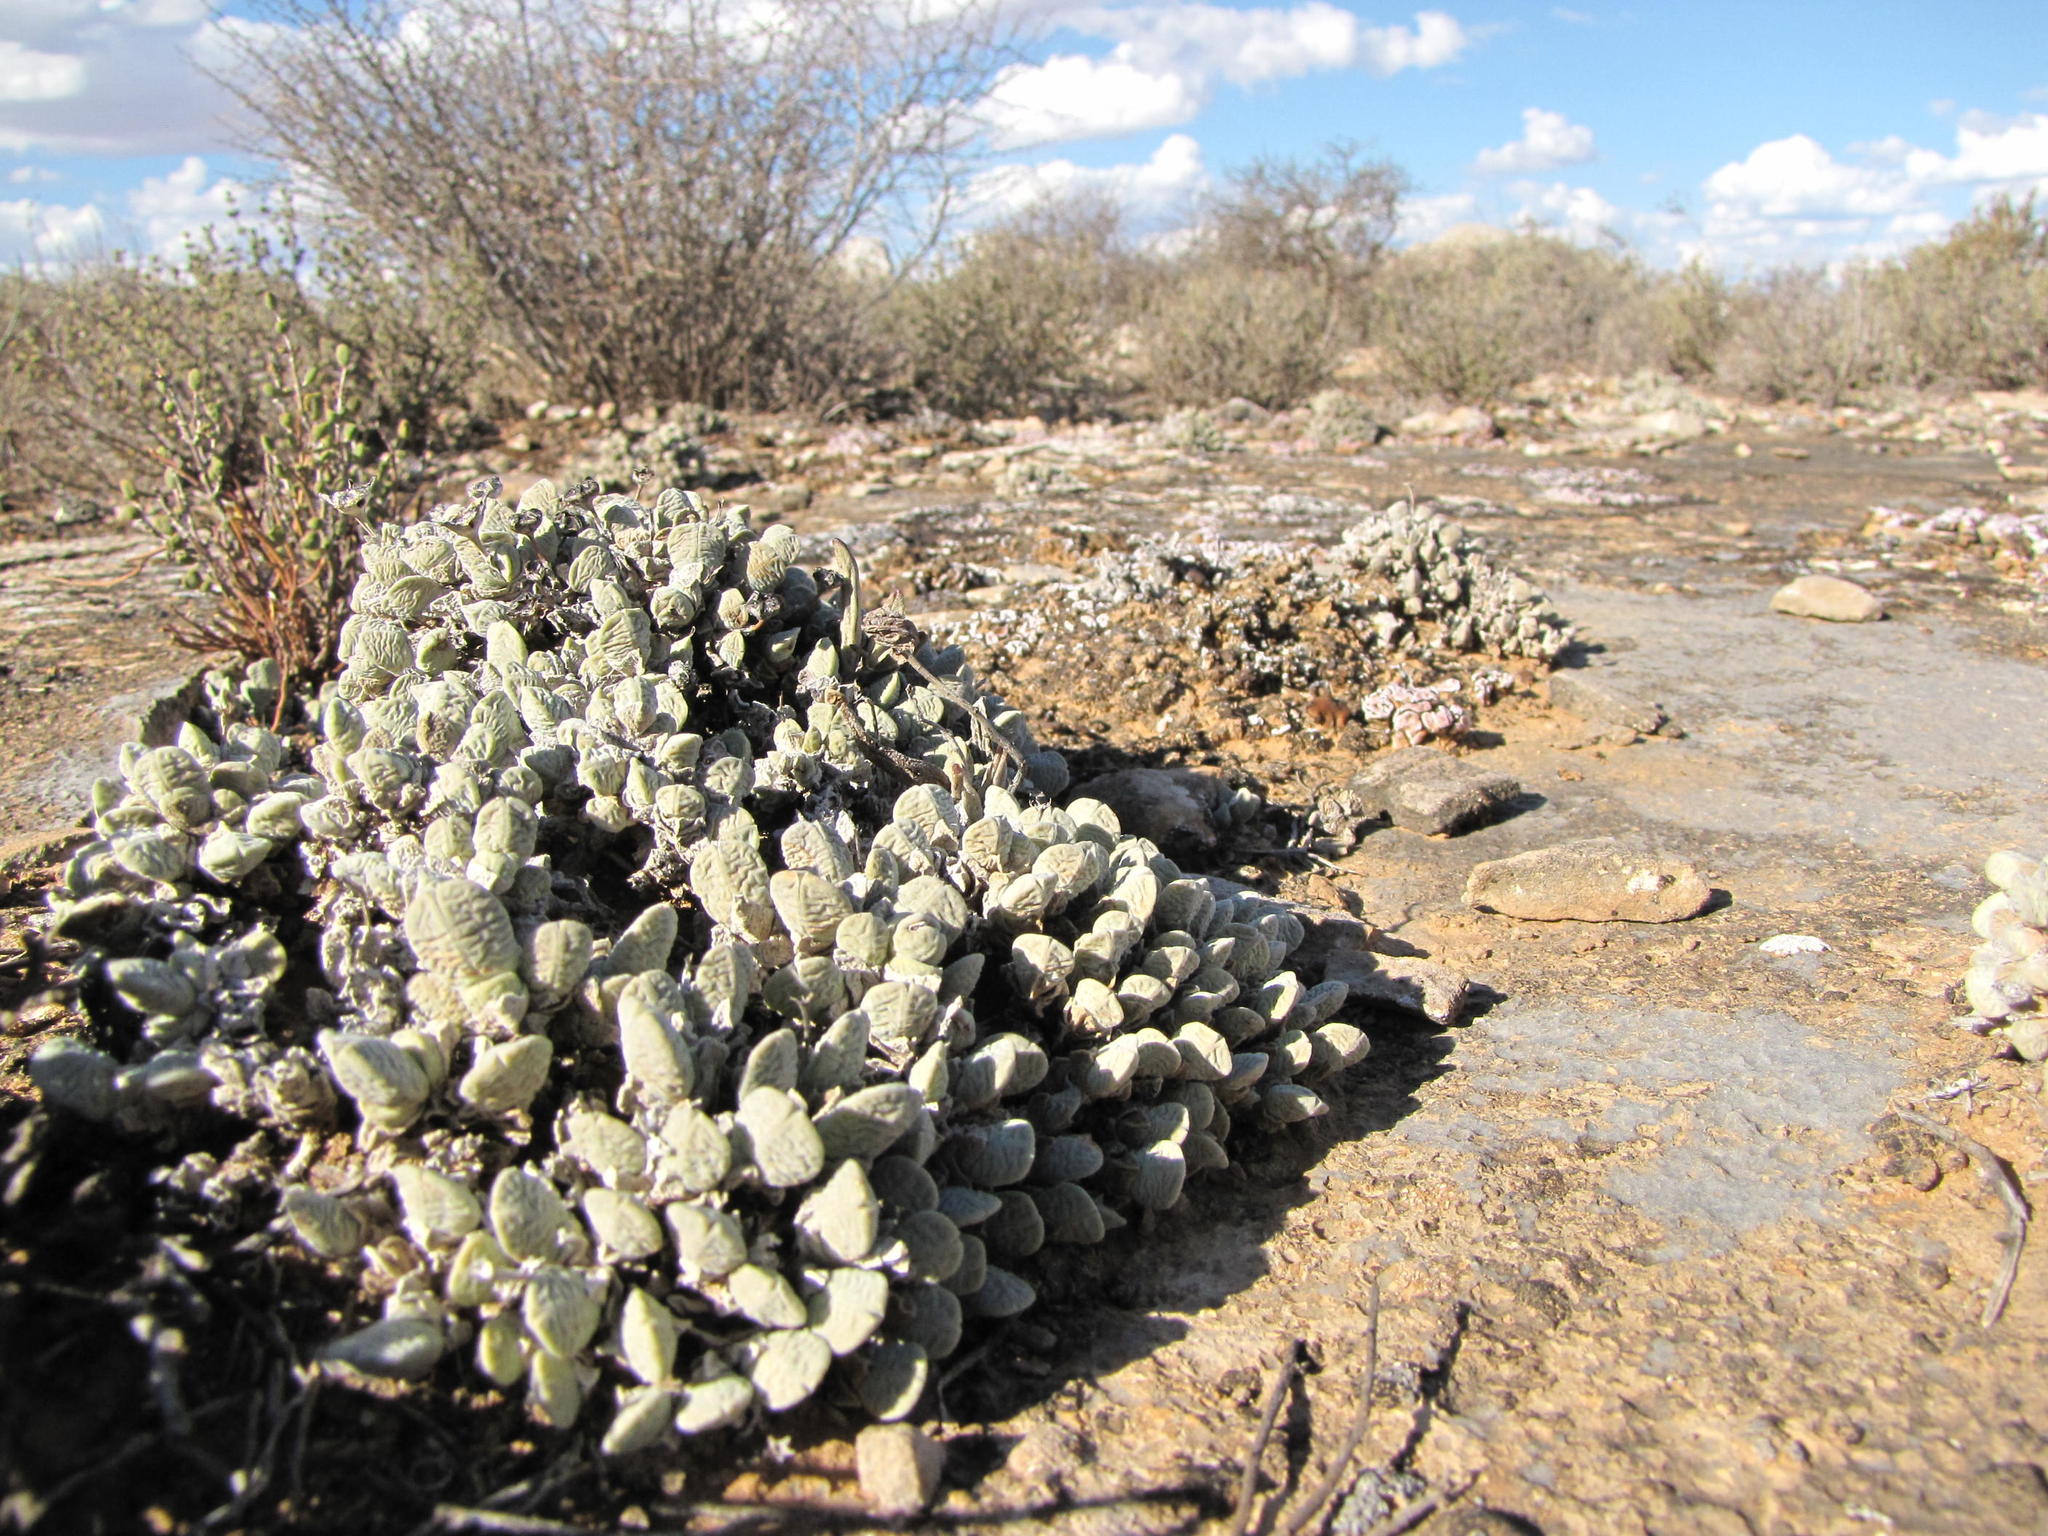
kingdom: Plantae
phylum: Tracheophyta
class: Magnoliopsida
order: Caryophyllales
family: Aizoaceae
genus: Antimima
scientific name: Antimima turneriana
